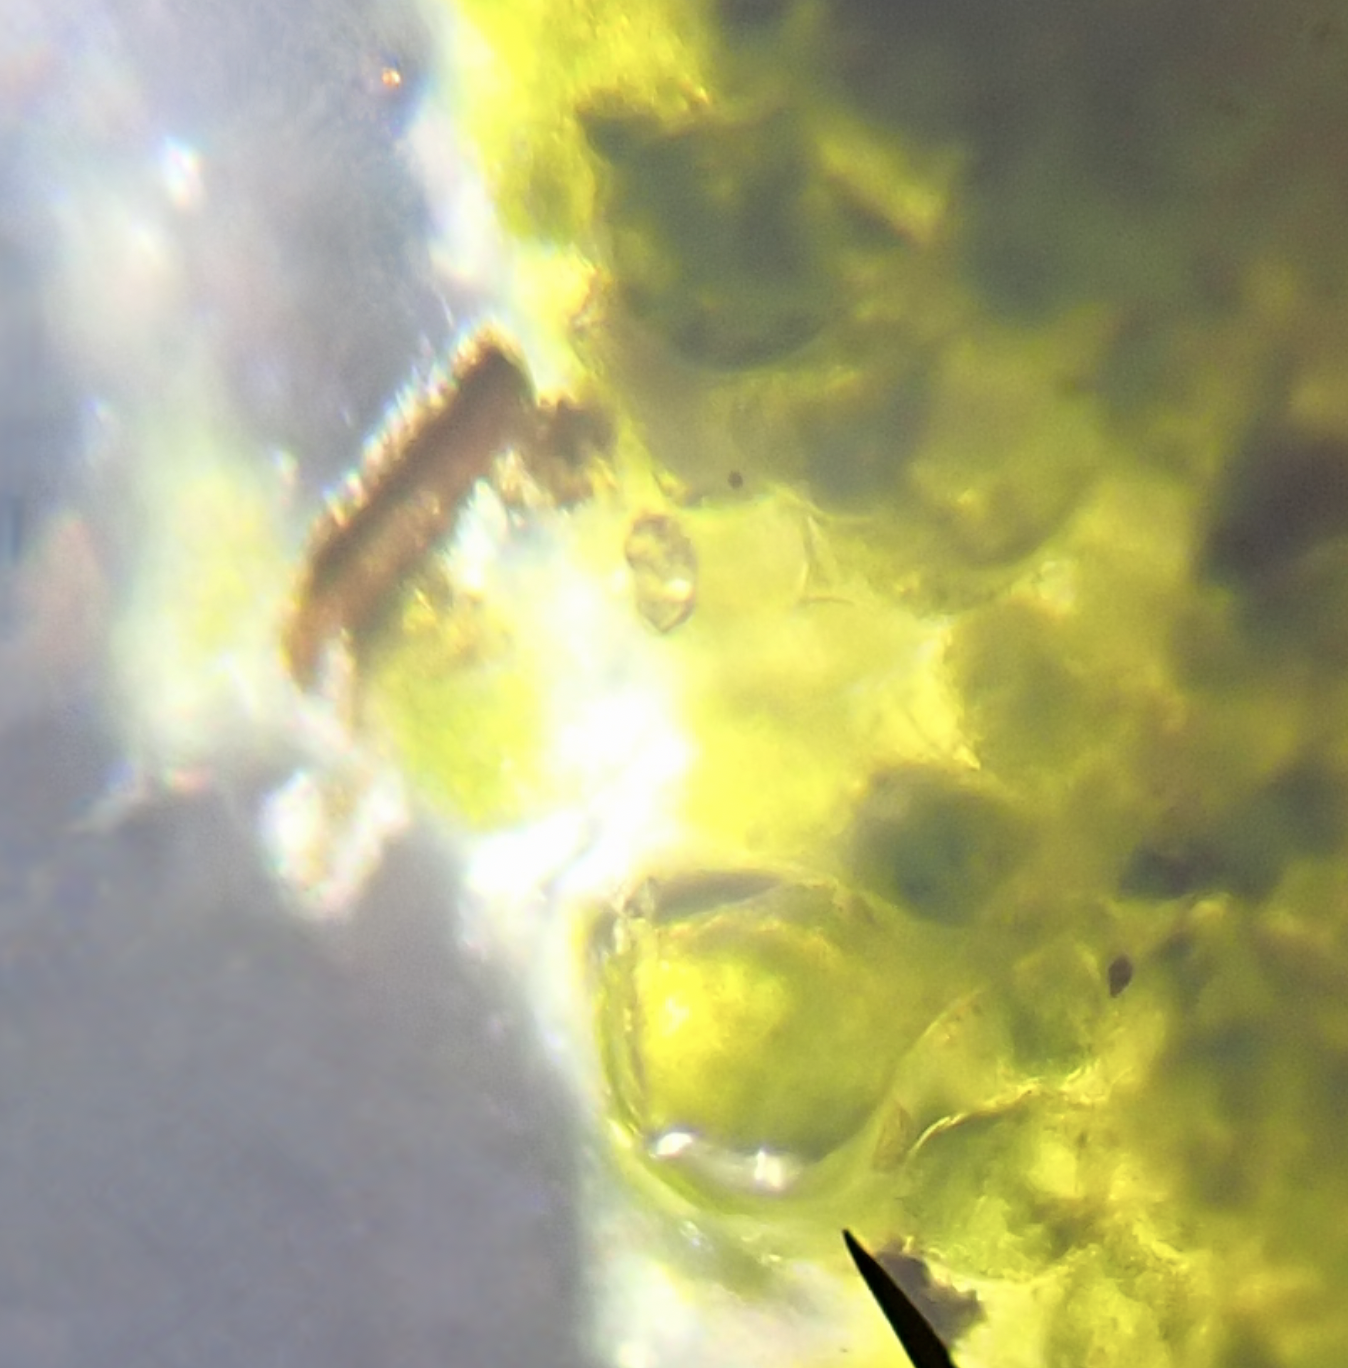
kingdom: Plantae
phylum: Chlorophyta
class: Ulvophyceae
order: Bryopsidales
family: Codiaceae
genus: Codium
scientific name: Codium fragile
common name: Dead man's fingers
